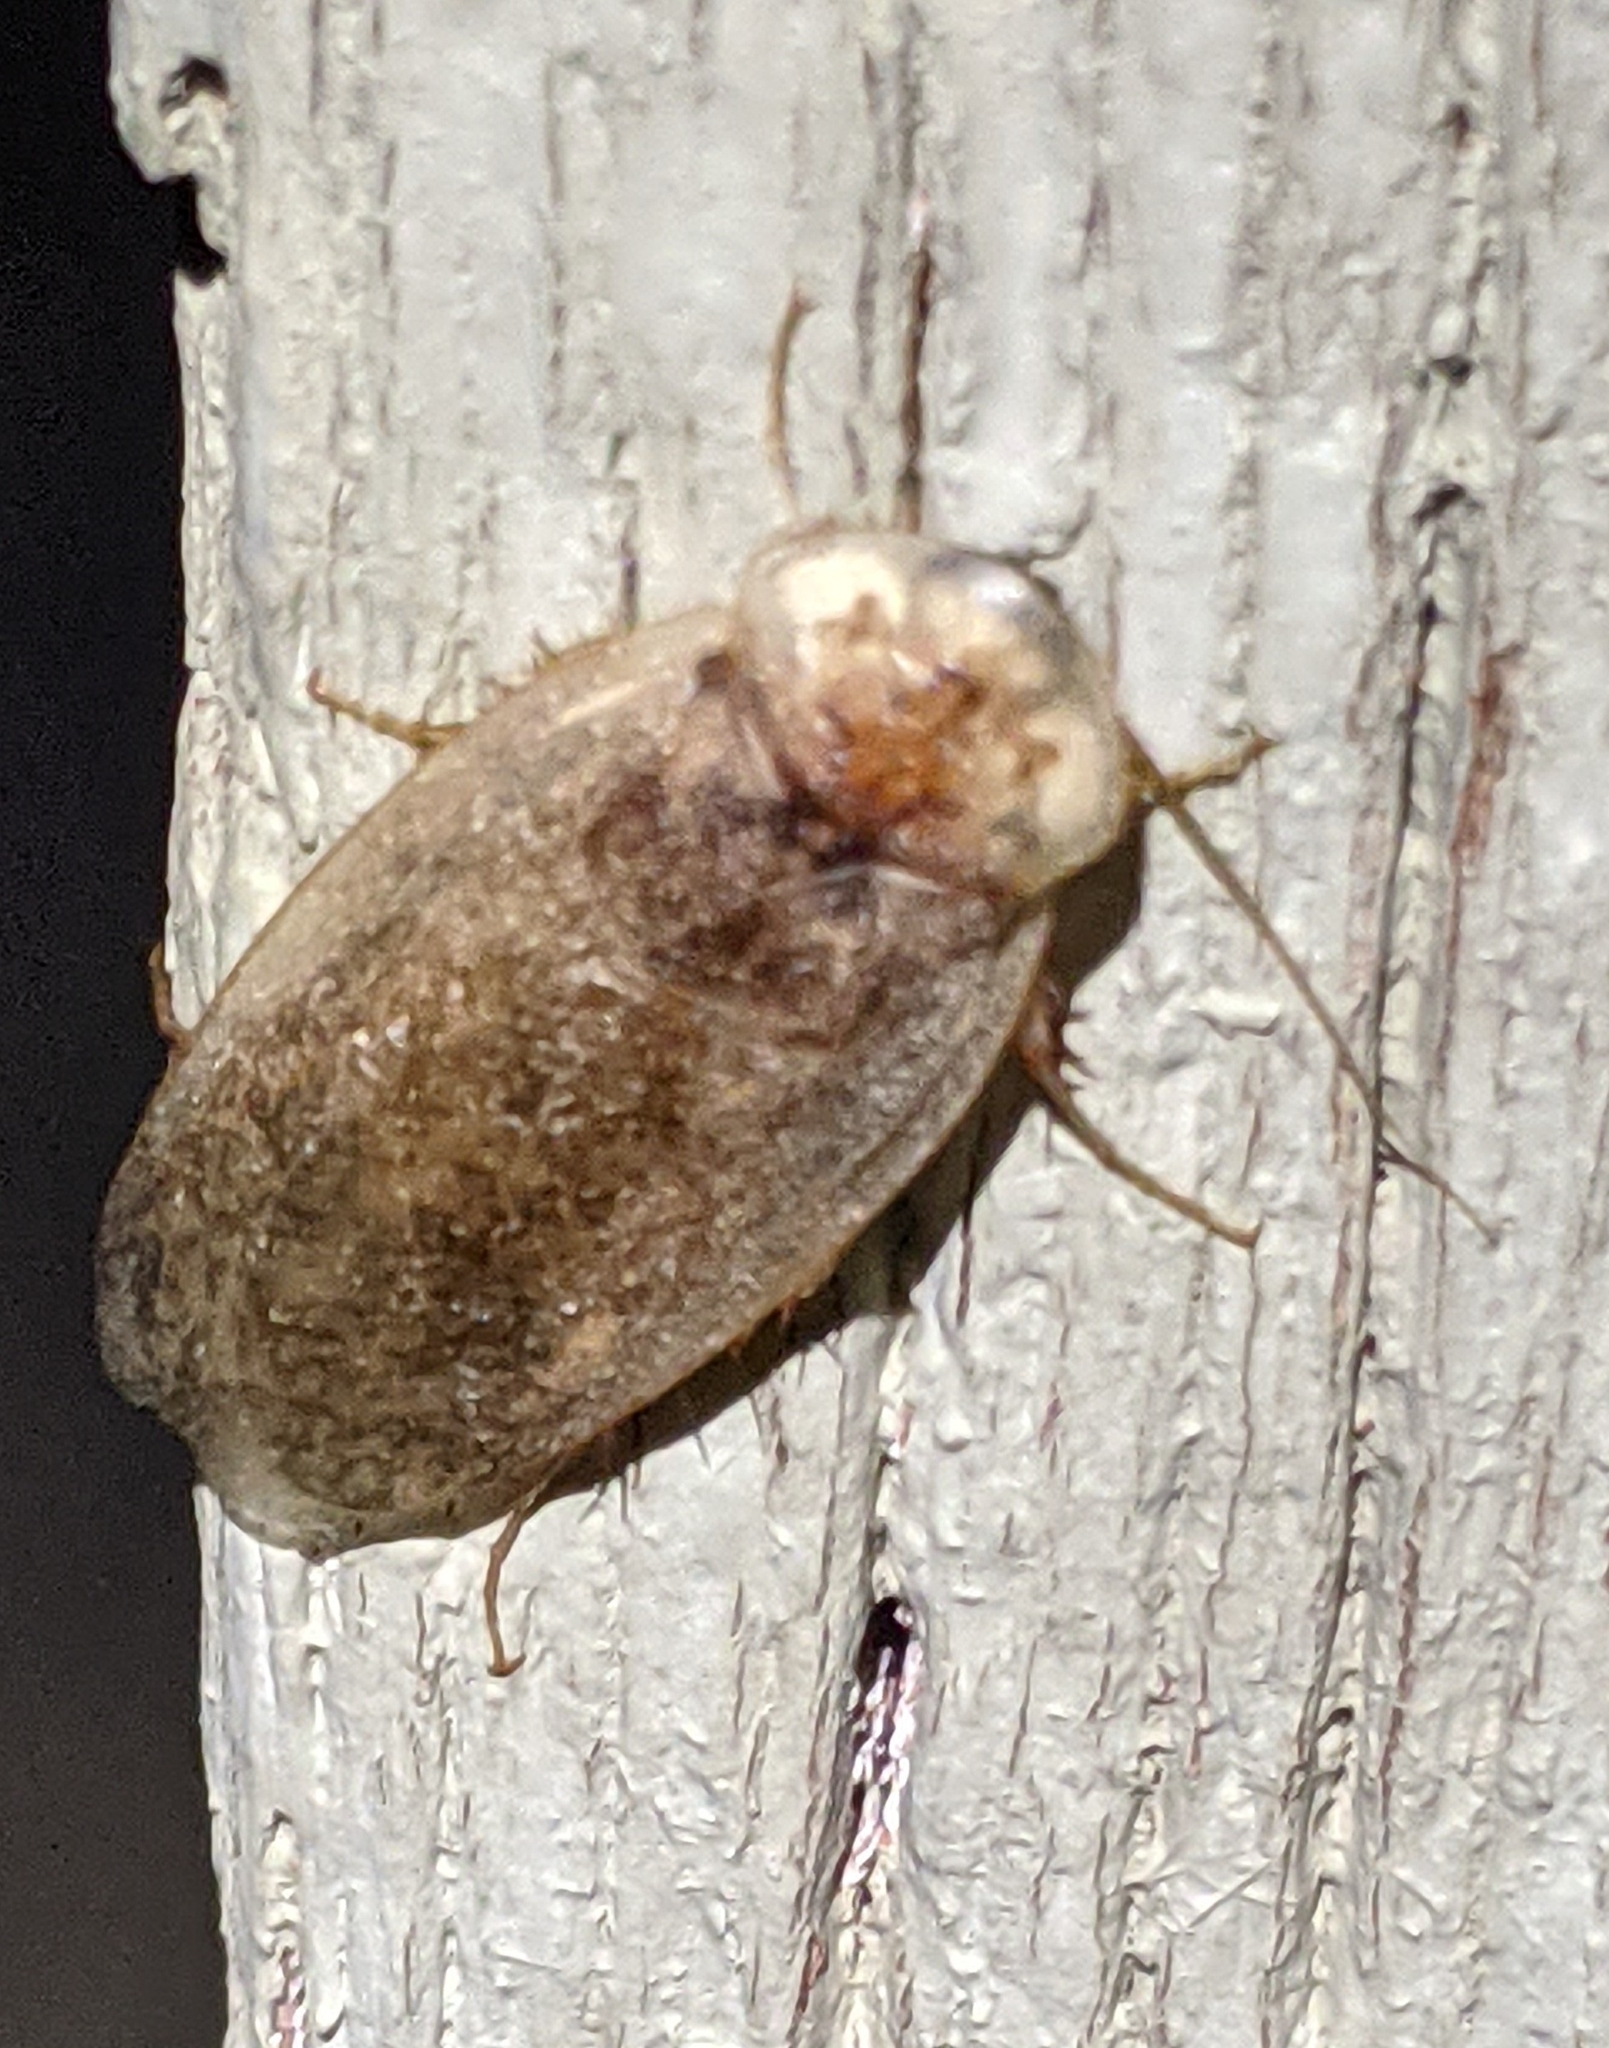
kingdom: Animalia
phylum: Arthropoda
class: Insecta
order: Blattodea
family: Corydiidae
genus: Arenivaga
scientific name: Arenivaga bolliana
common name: Boll's sand cockroach
